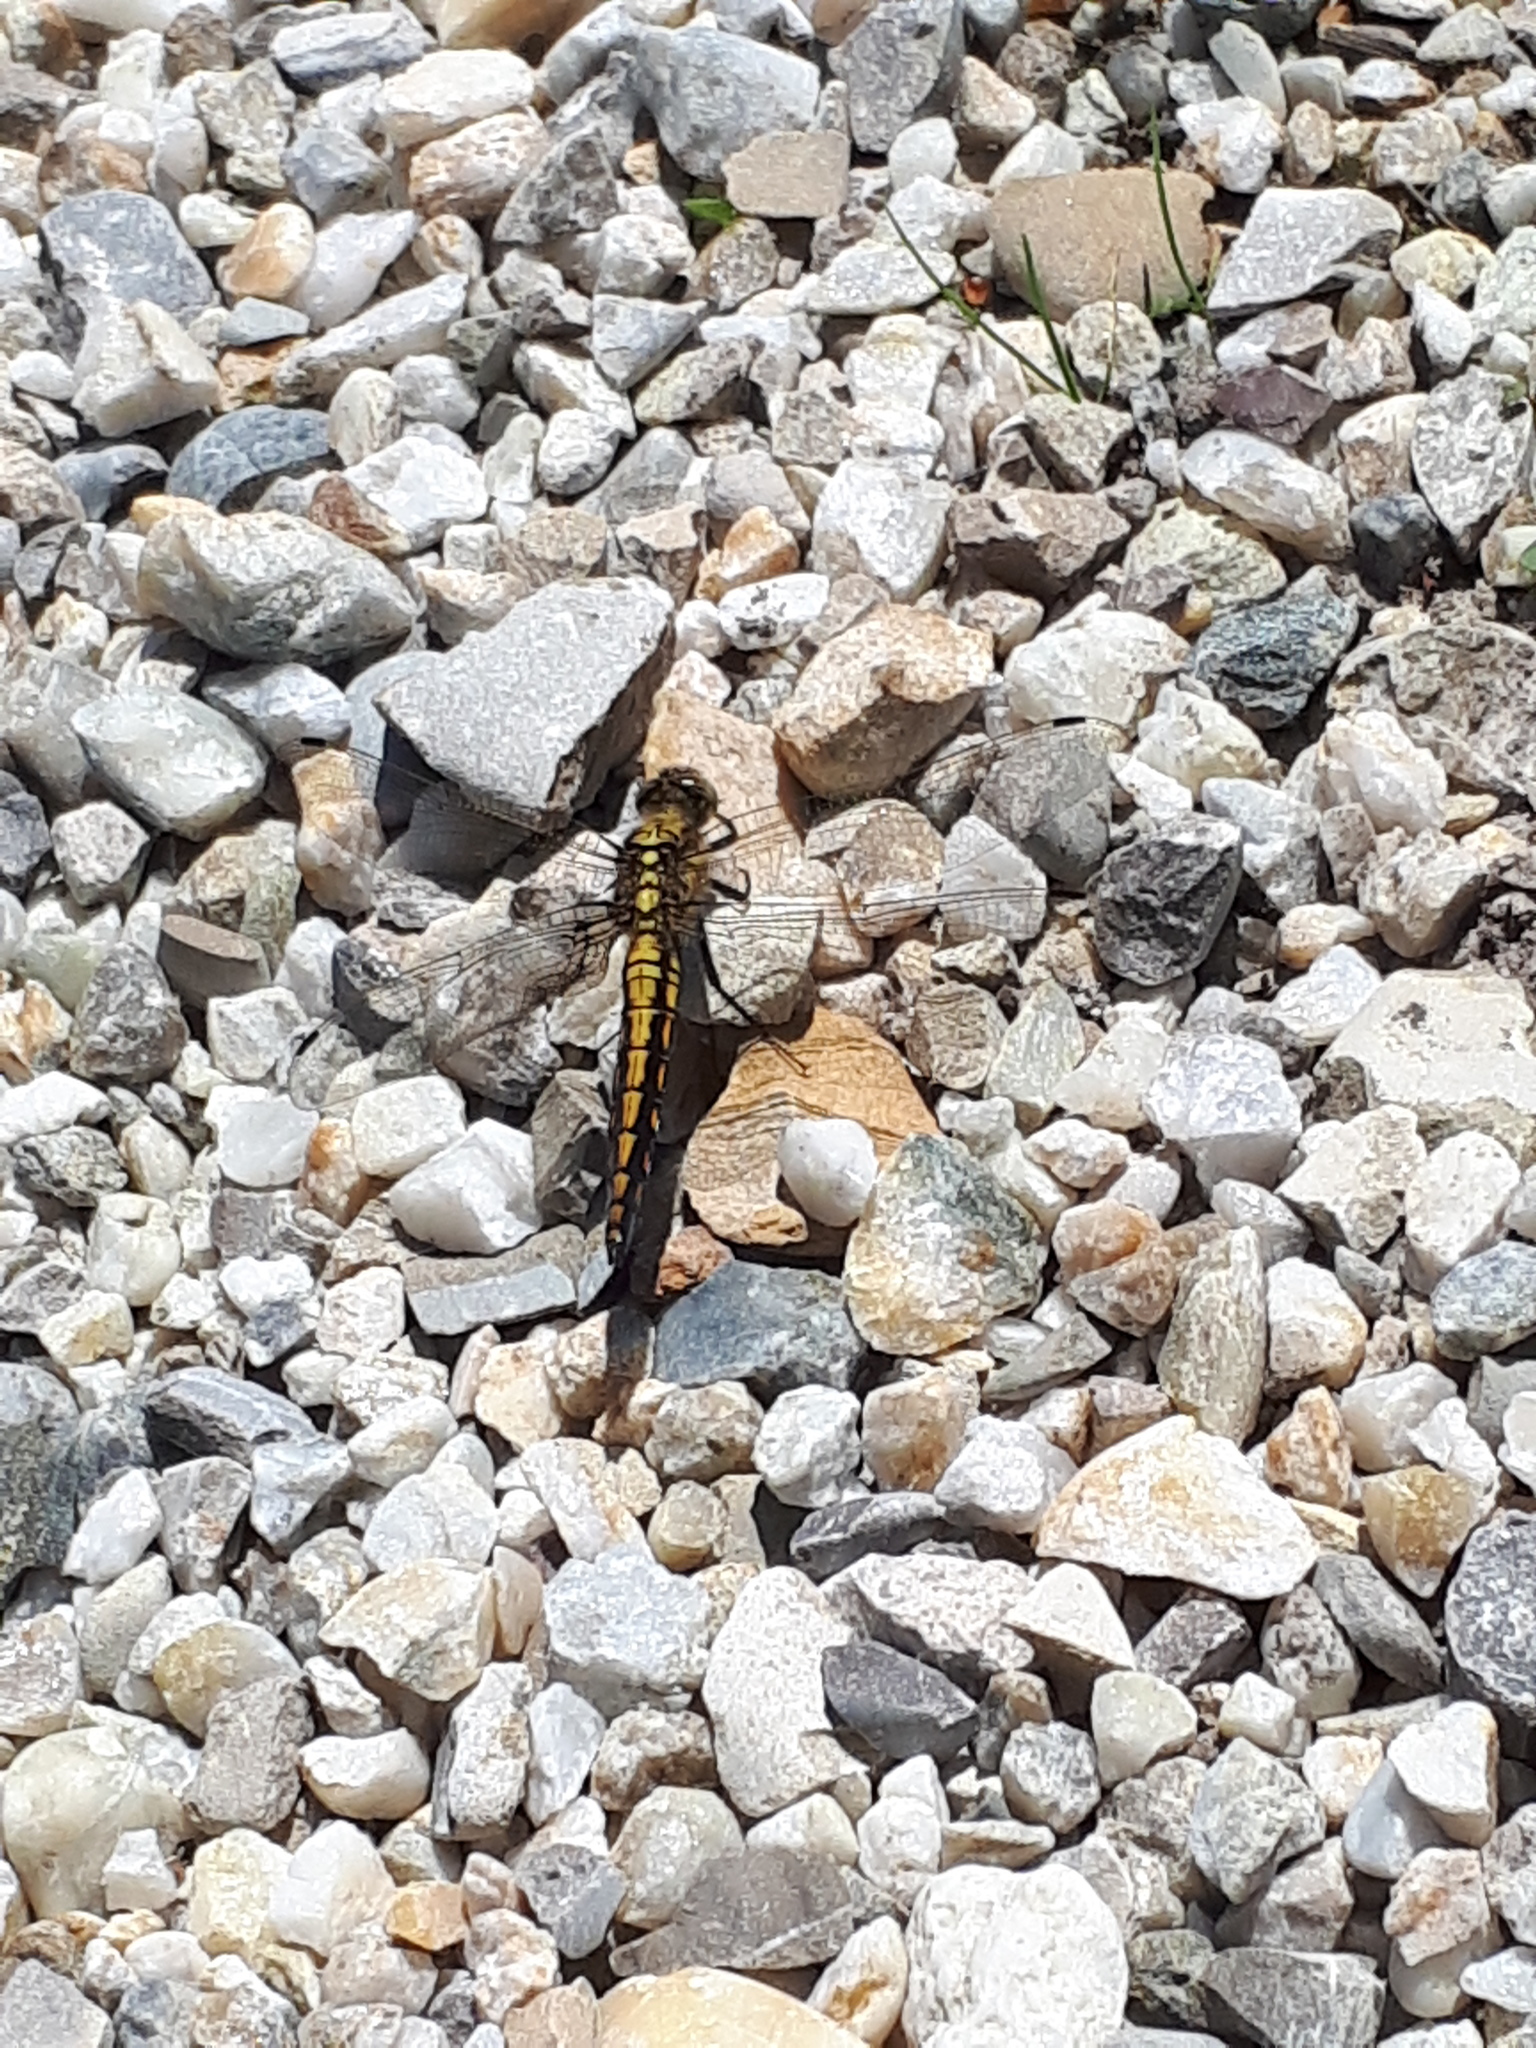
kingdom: Animalia
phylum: Arthropoda
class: Insecta
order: Odonata
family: Libellulidae
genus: Orthetrum
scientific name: Orthetrum cancellatum
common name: Black-tailed skimmer
